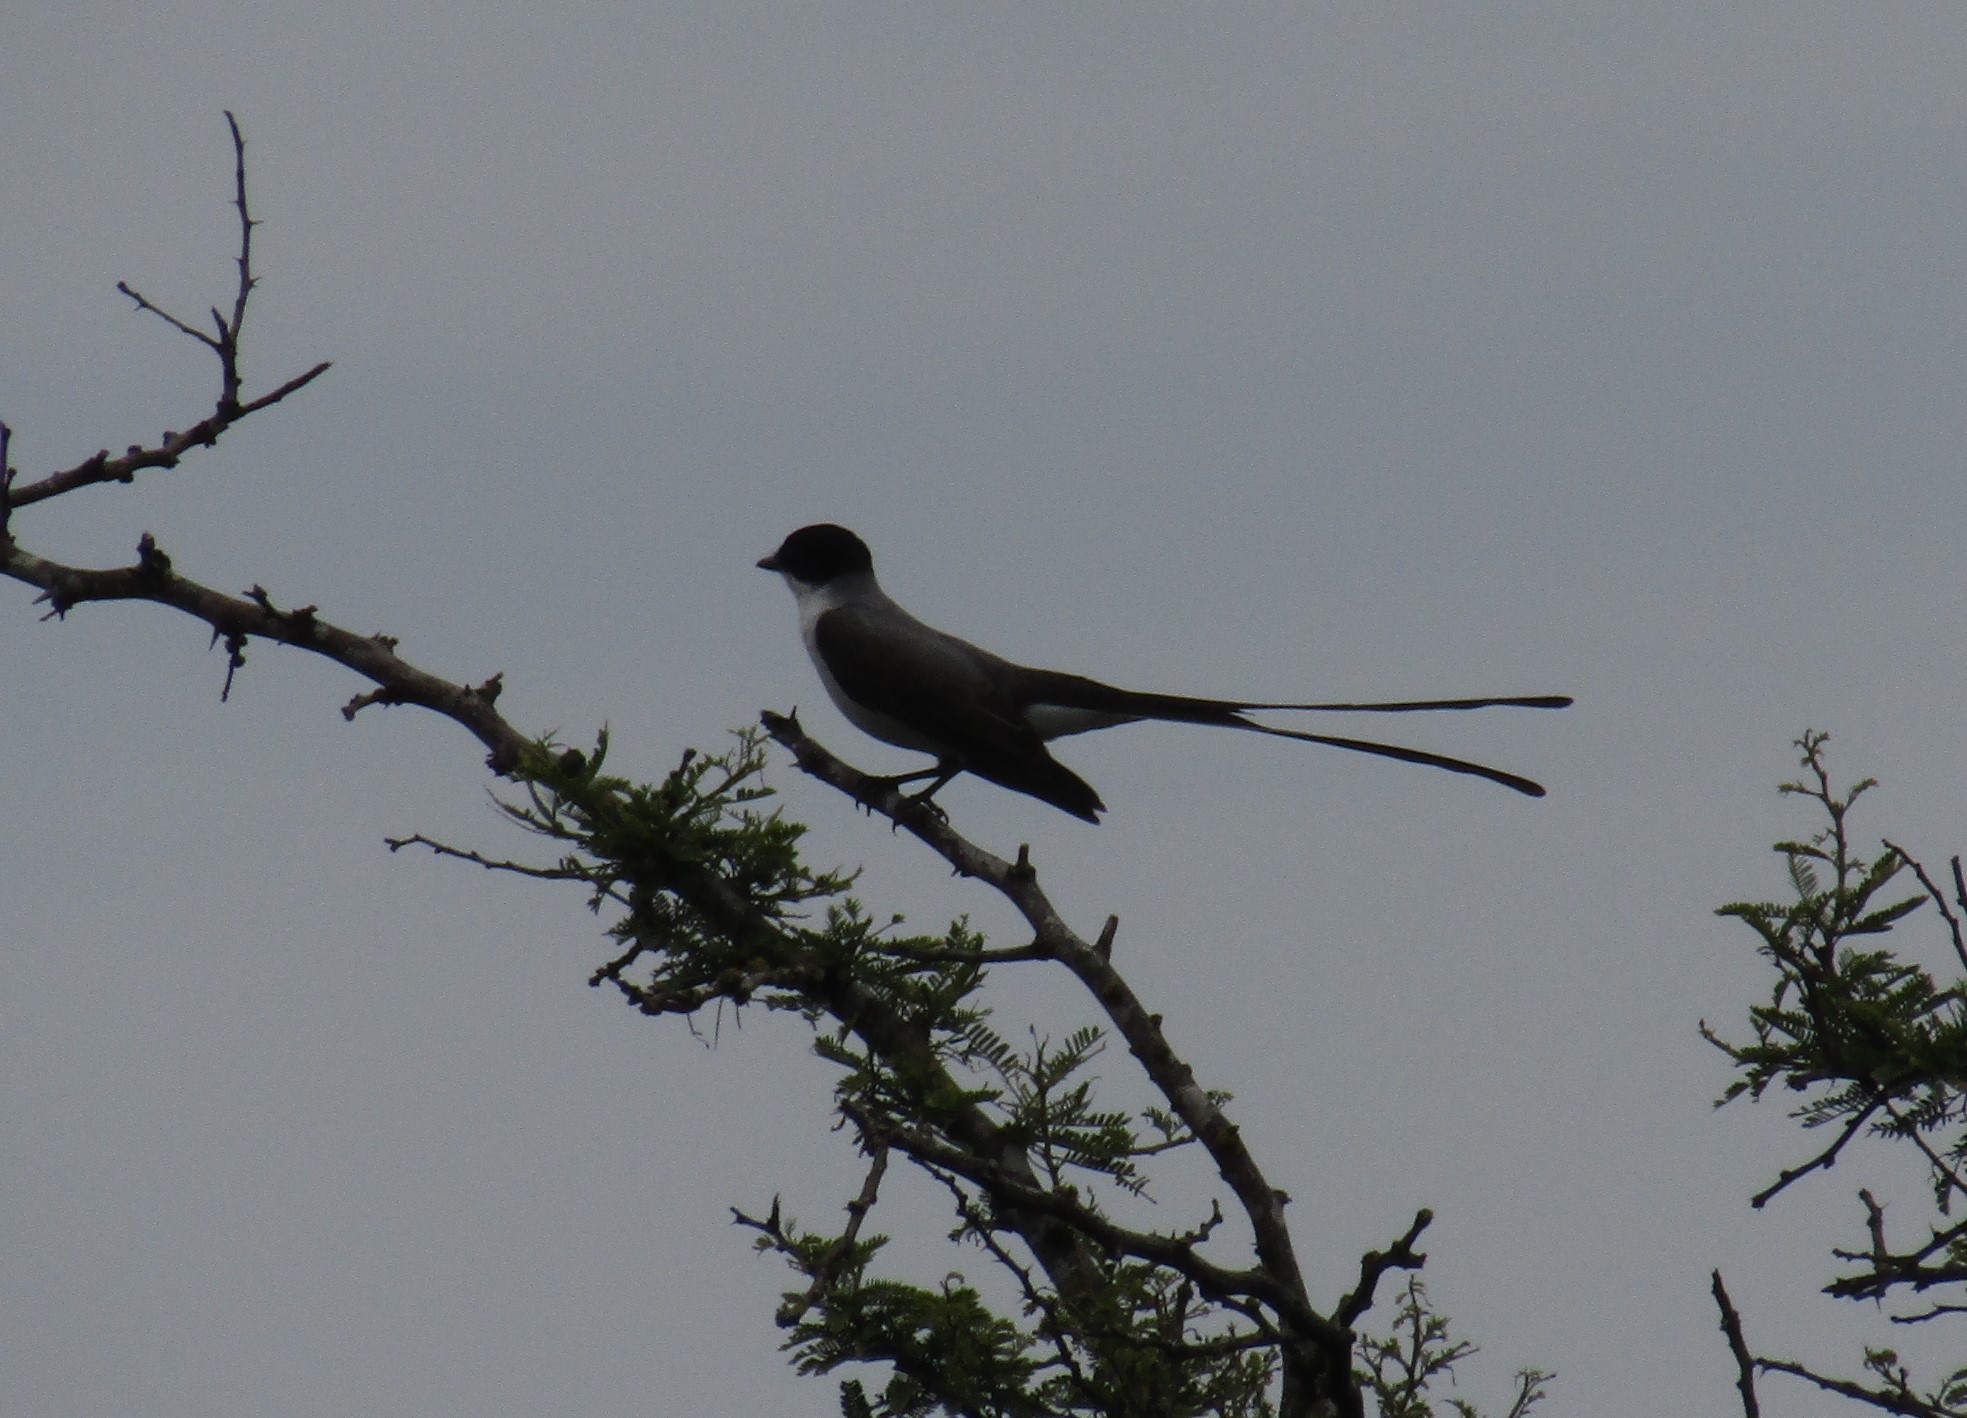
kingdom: Animalia
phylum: Chordata
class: Aves
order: Passeriformes
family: Tyrannidae
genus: Tyrannus
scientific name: Tyrannus savana
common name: Fork-tailed flycatcher
